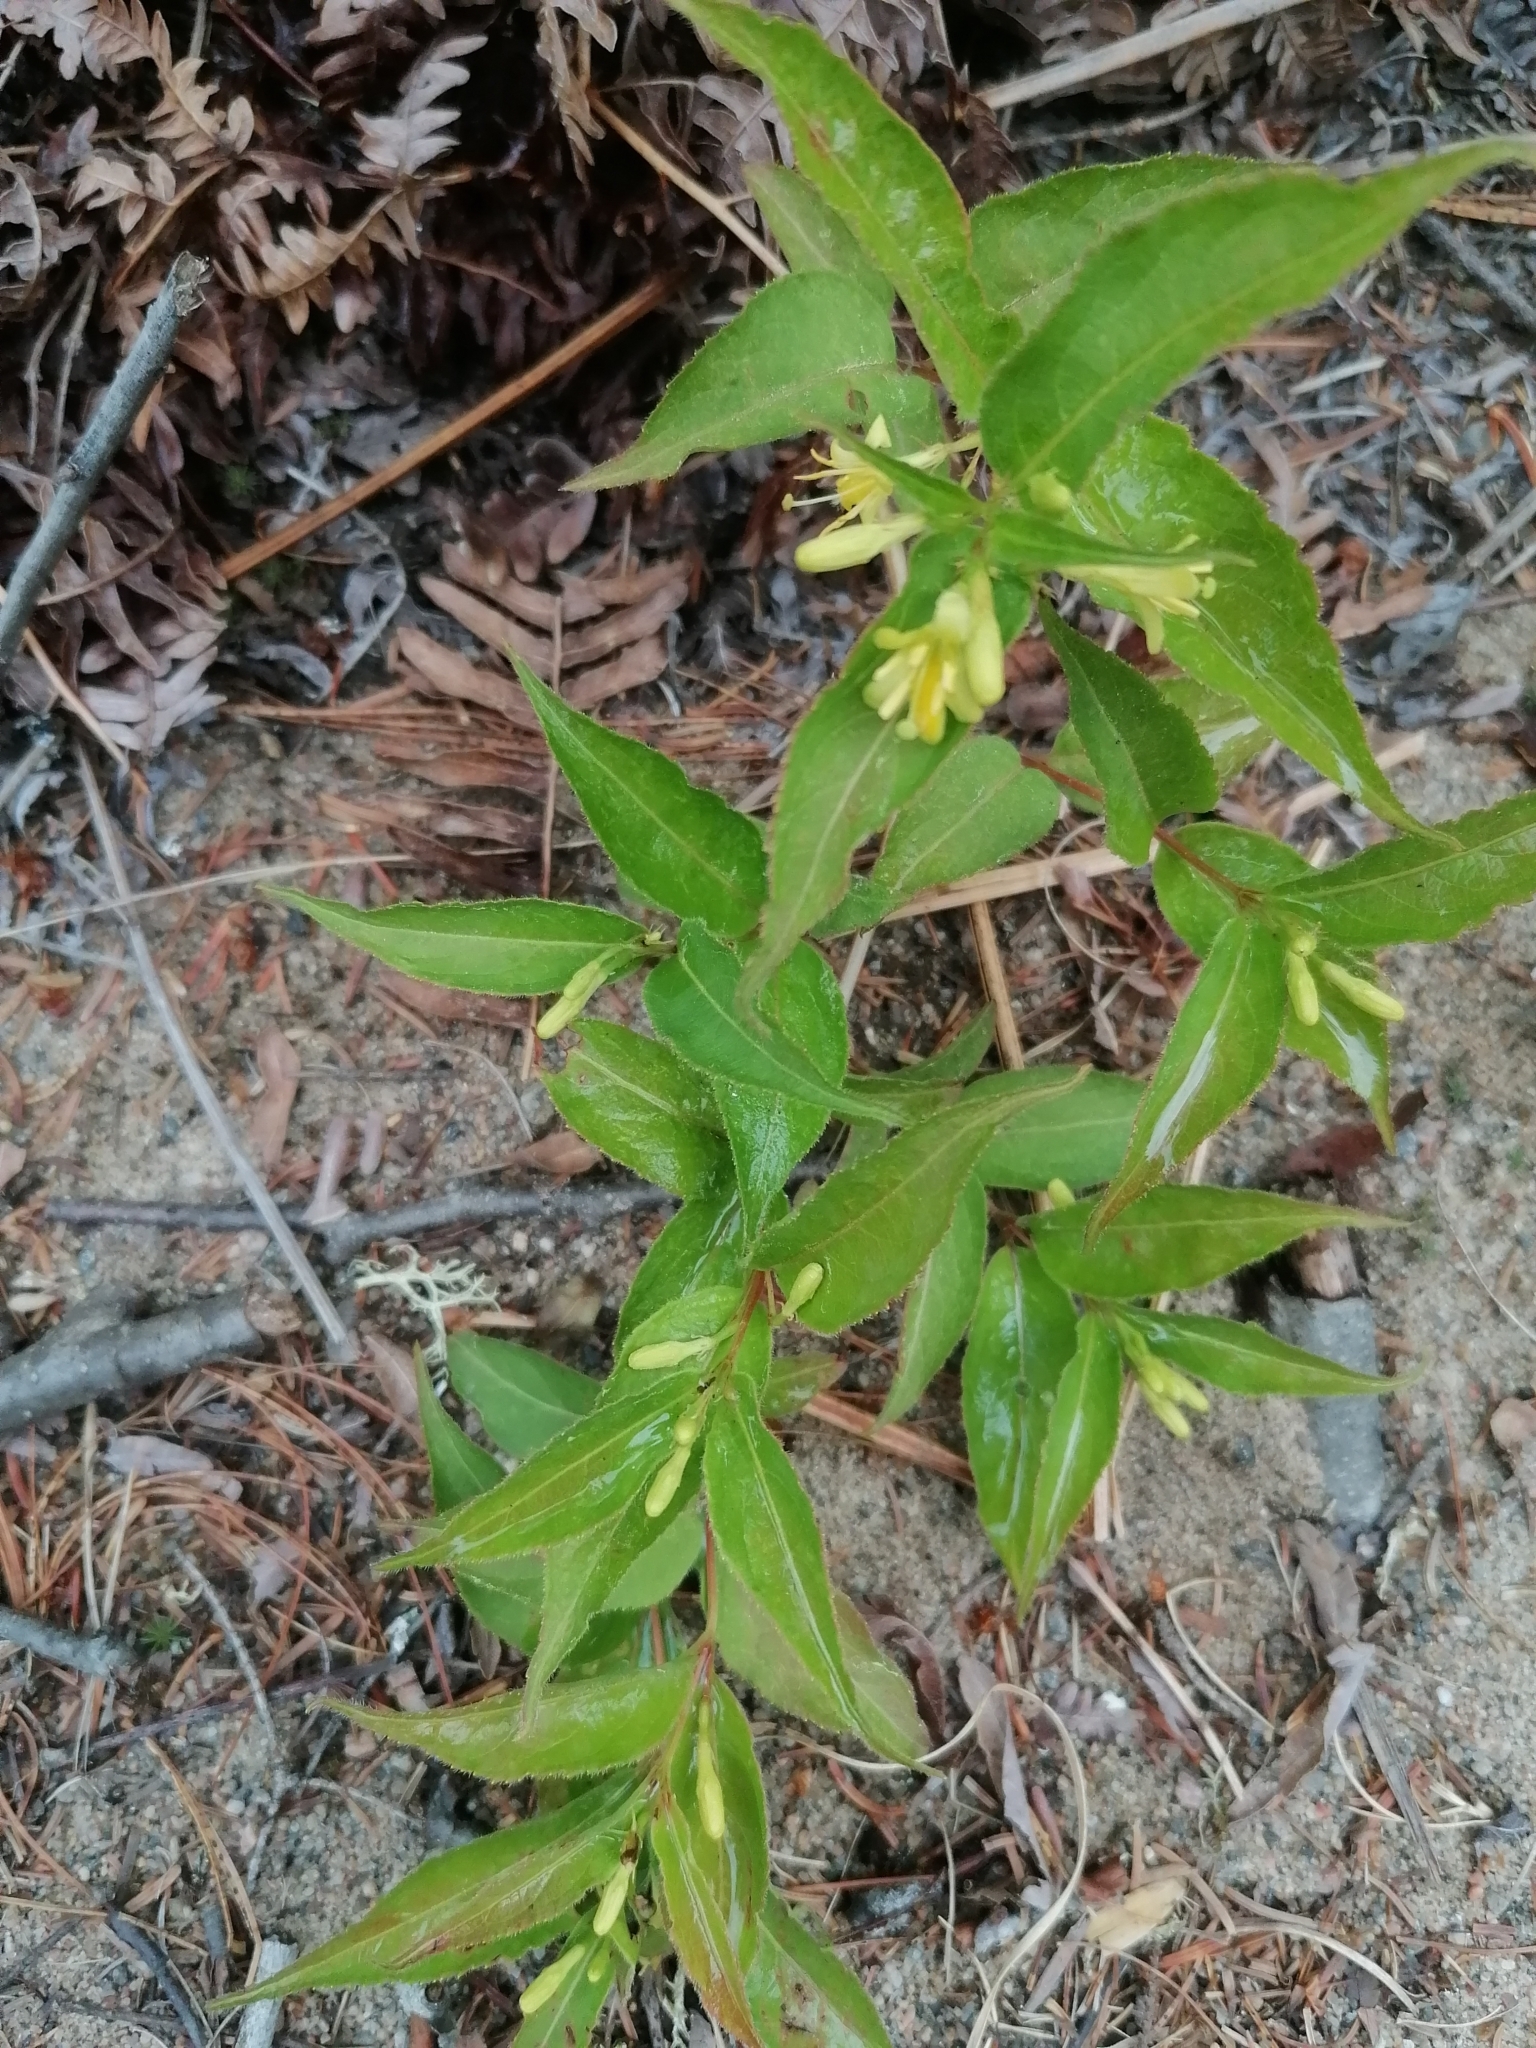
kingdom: Plantae
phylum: Tracheophyta
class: Magnoliopsida
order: Dipsacales
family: Caprifoliaceae
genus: Diervilla
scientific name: Diervilla lonicera
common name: Bush-honeysuckle
